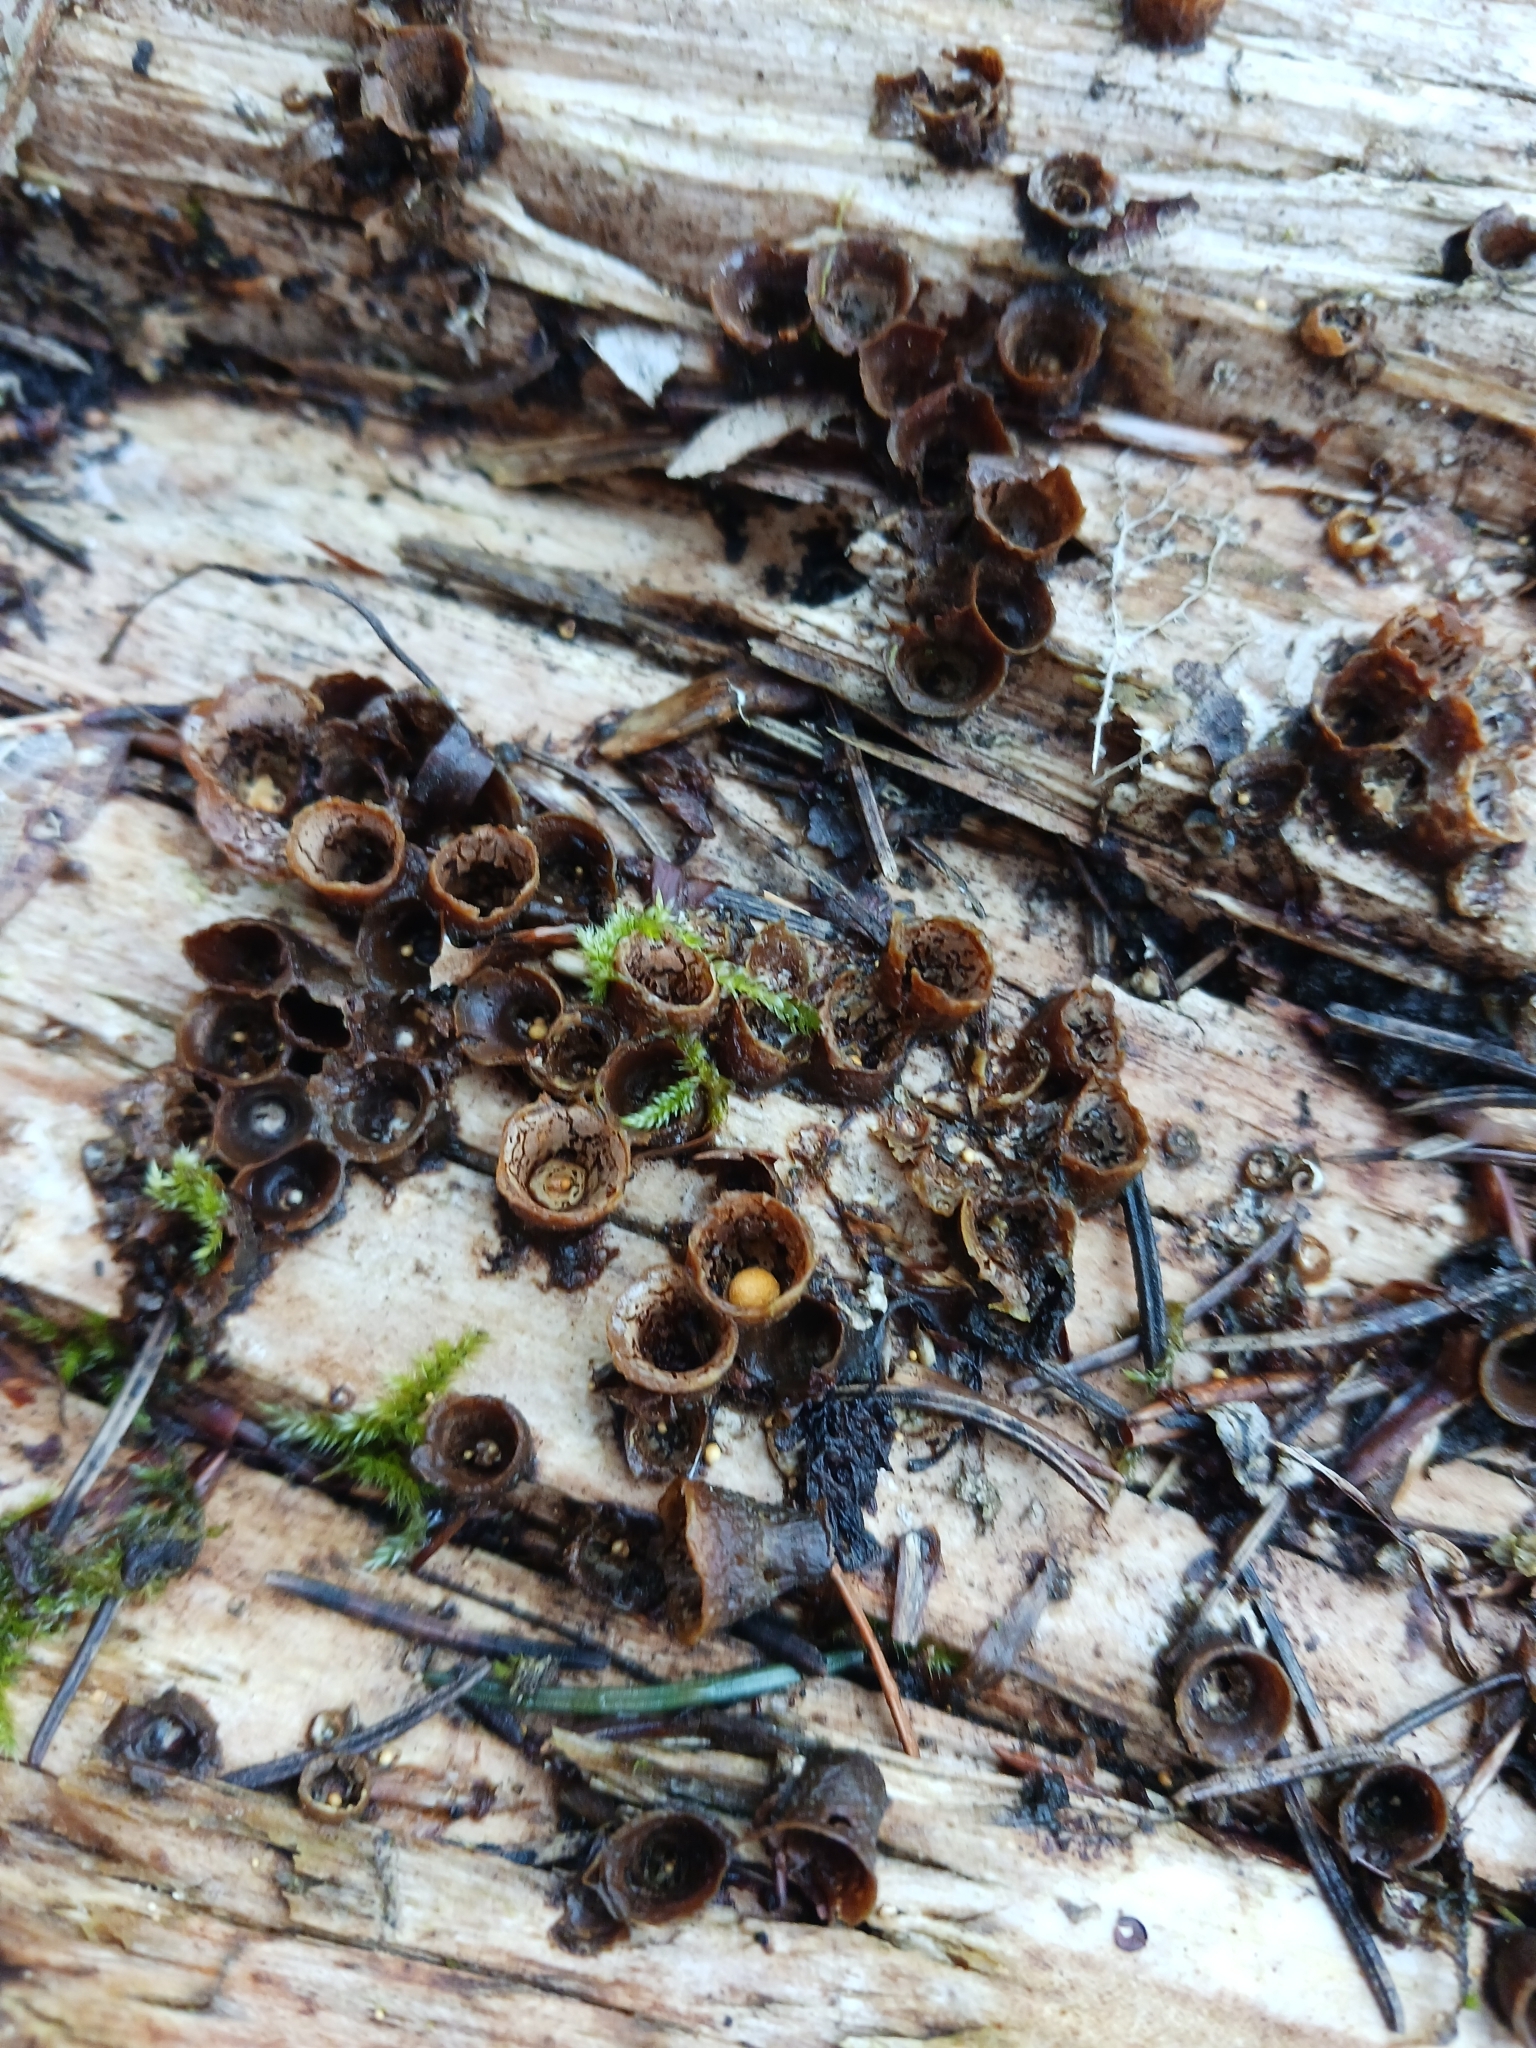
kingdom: Fungi
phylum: Basidiomycota
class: Agaricomycetes
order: Agaricales
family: Nidulariaceae
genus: Crucibulum
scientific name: Crucibulum laeve
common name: Common bird's nest
